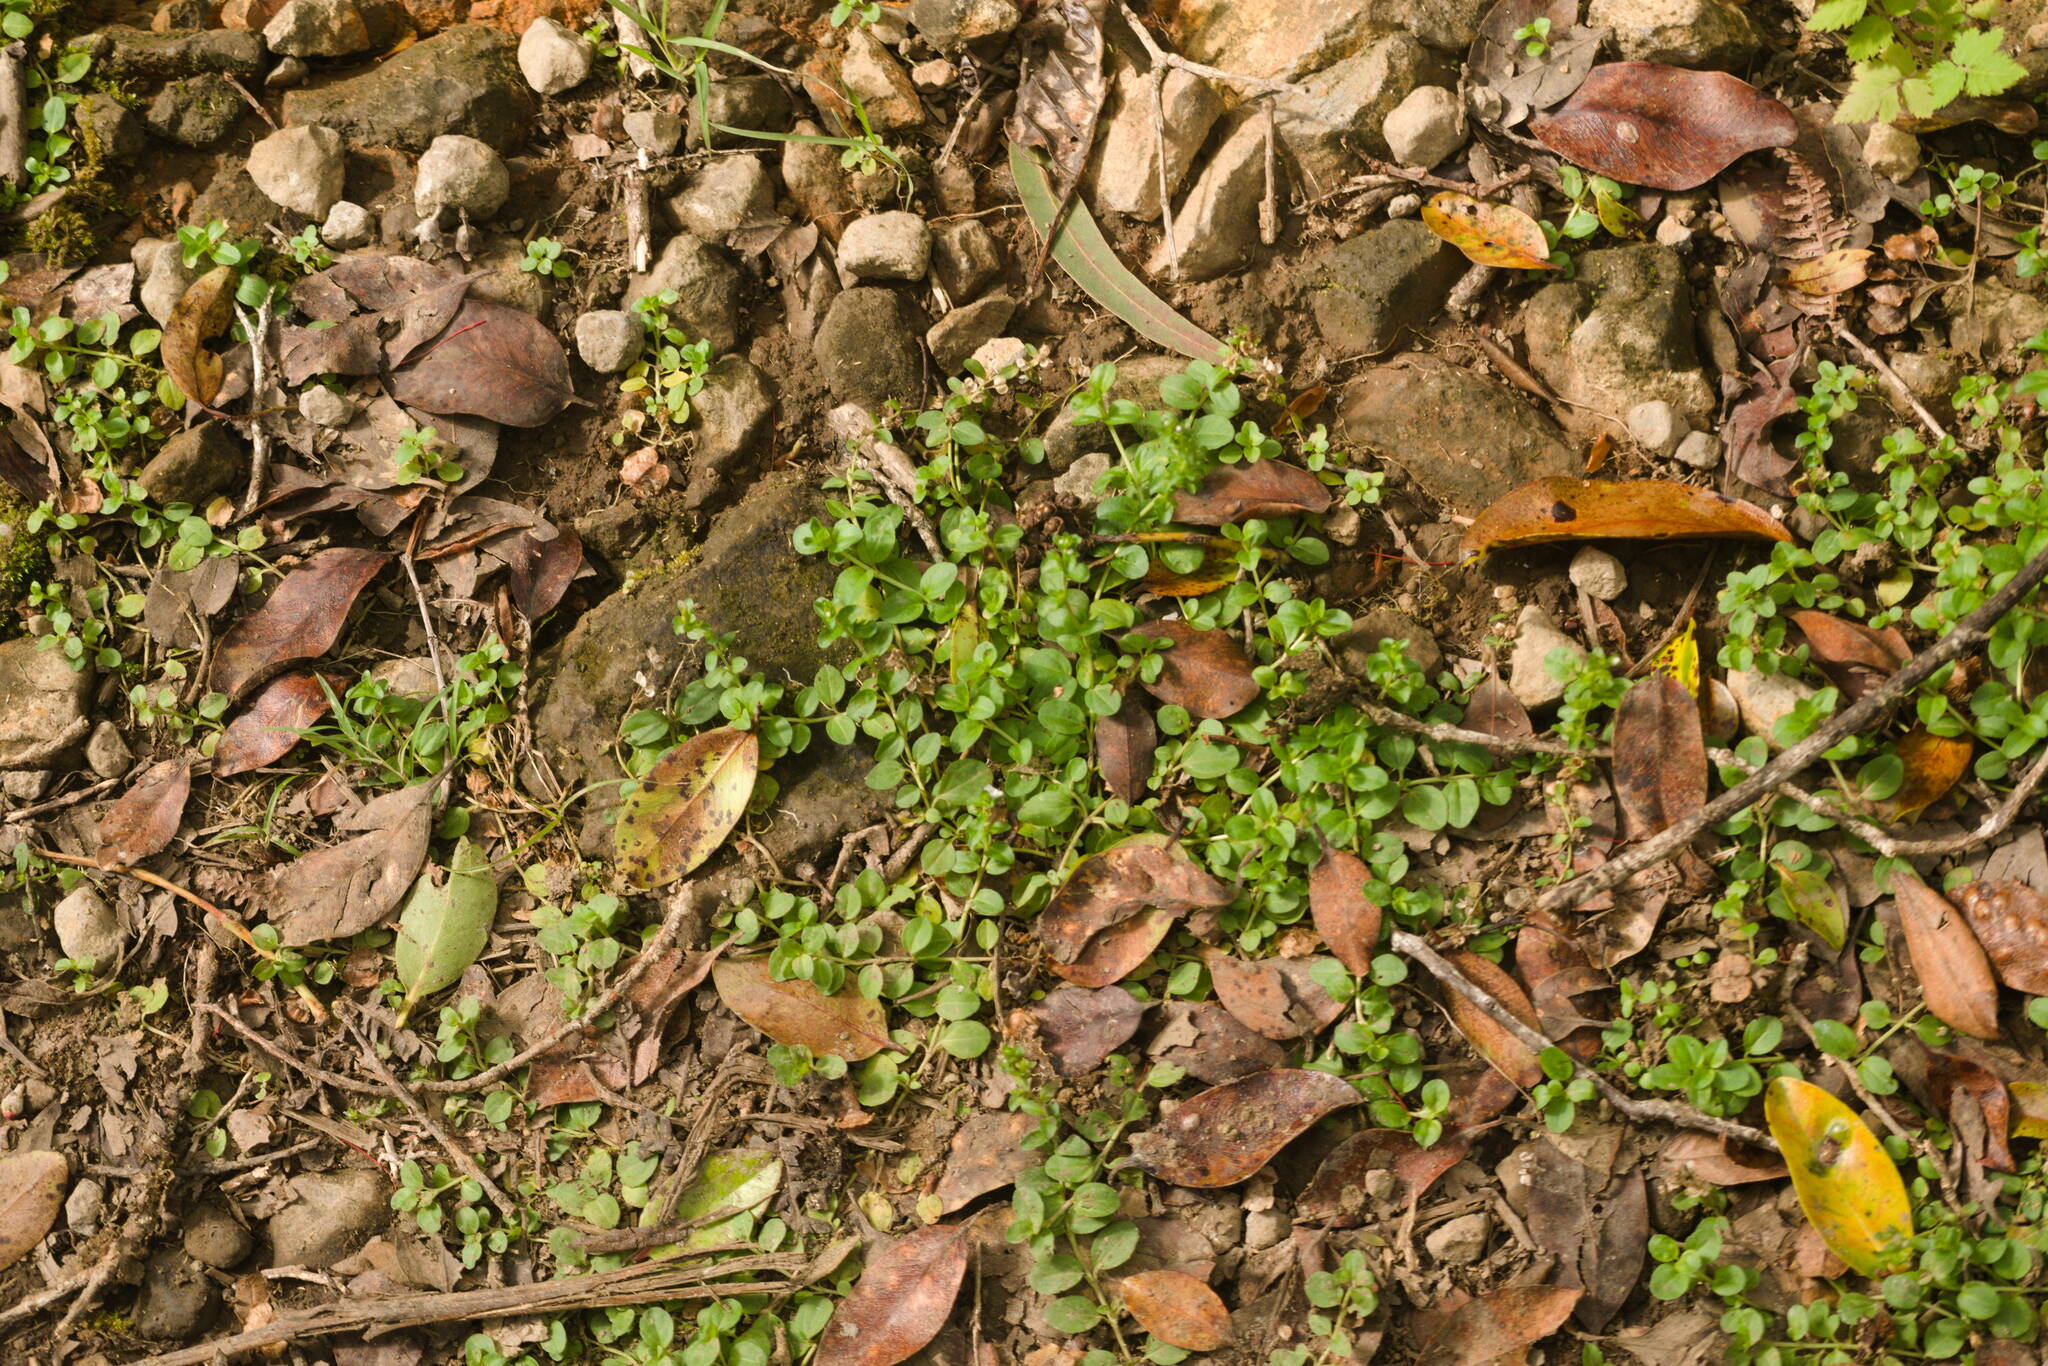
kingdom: Plantae
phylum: Tracheophyta
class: Magnoliopsida
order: Lamiales
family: Plantaginaceae
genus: Veronica
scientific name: Veronica serpyllifolia
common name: Thyme-leaved speedwell
